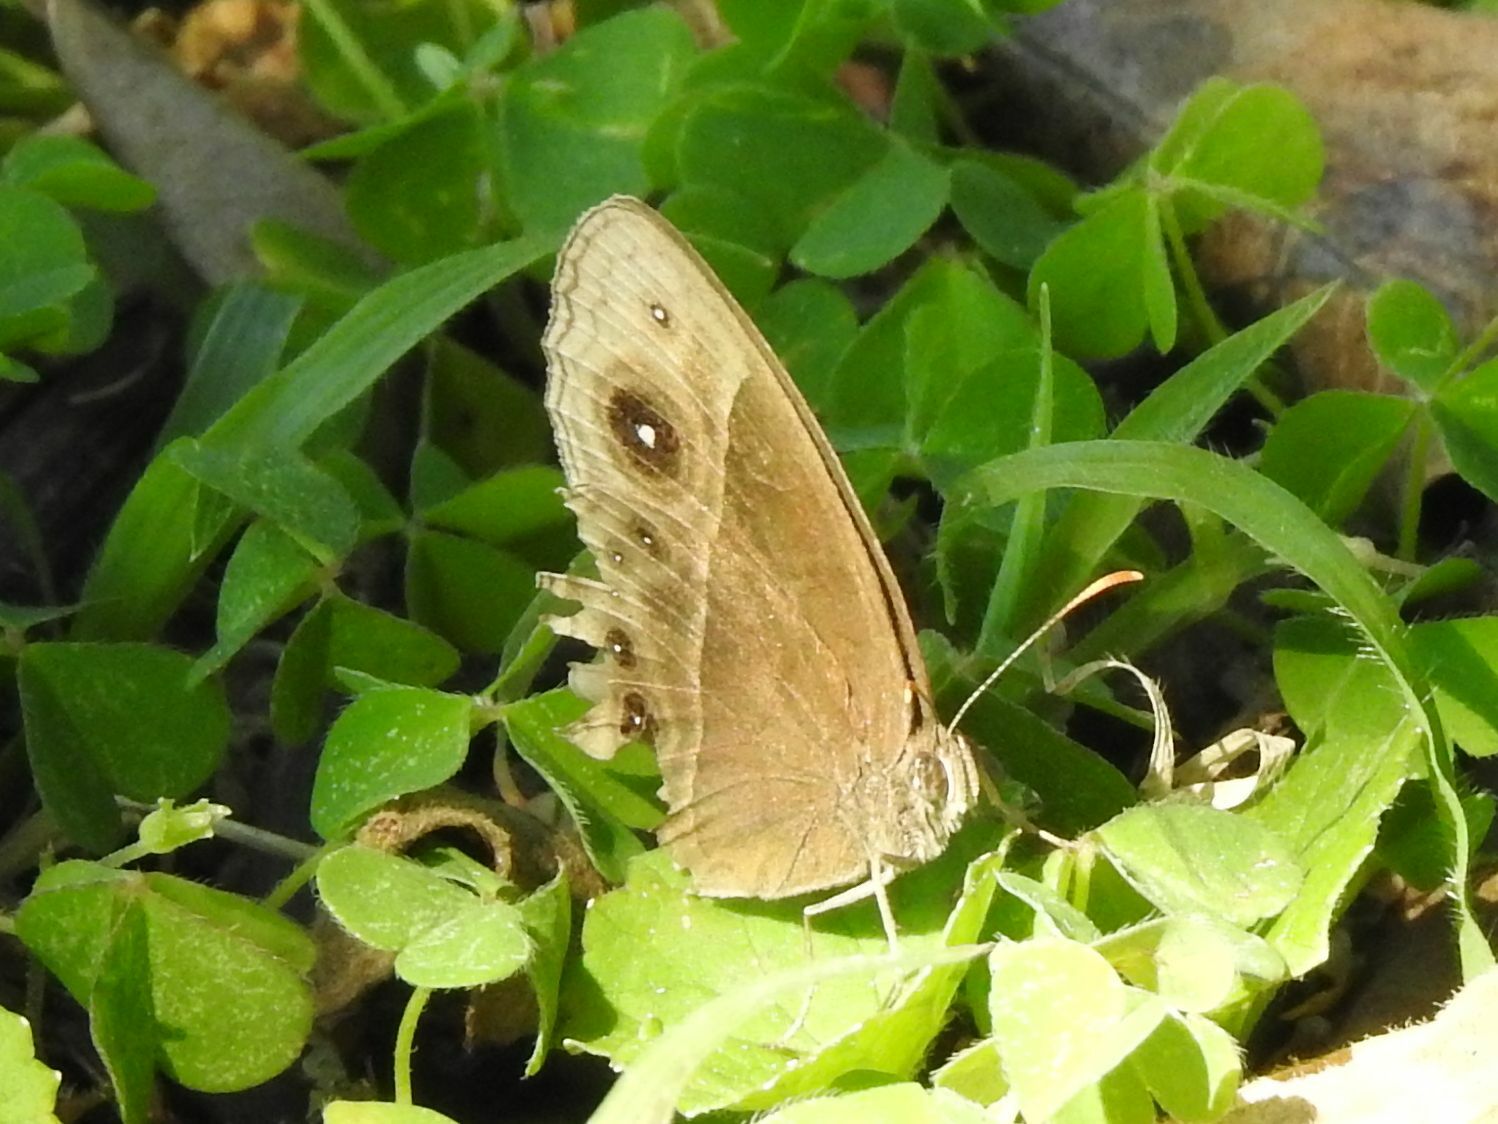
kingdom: Animalia
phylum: Arthropoda
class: Insecta
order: Lepidoptera
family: Nymphalidae
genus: Mycalesis
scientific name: Mycalesis rhacotis
